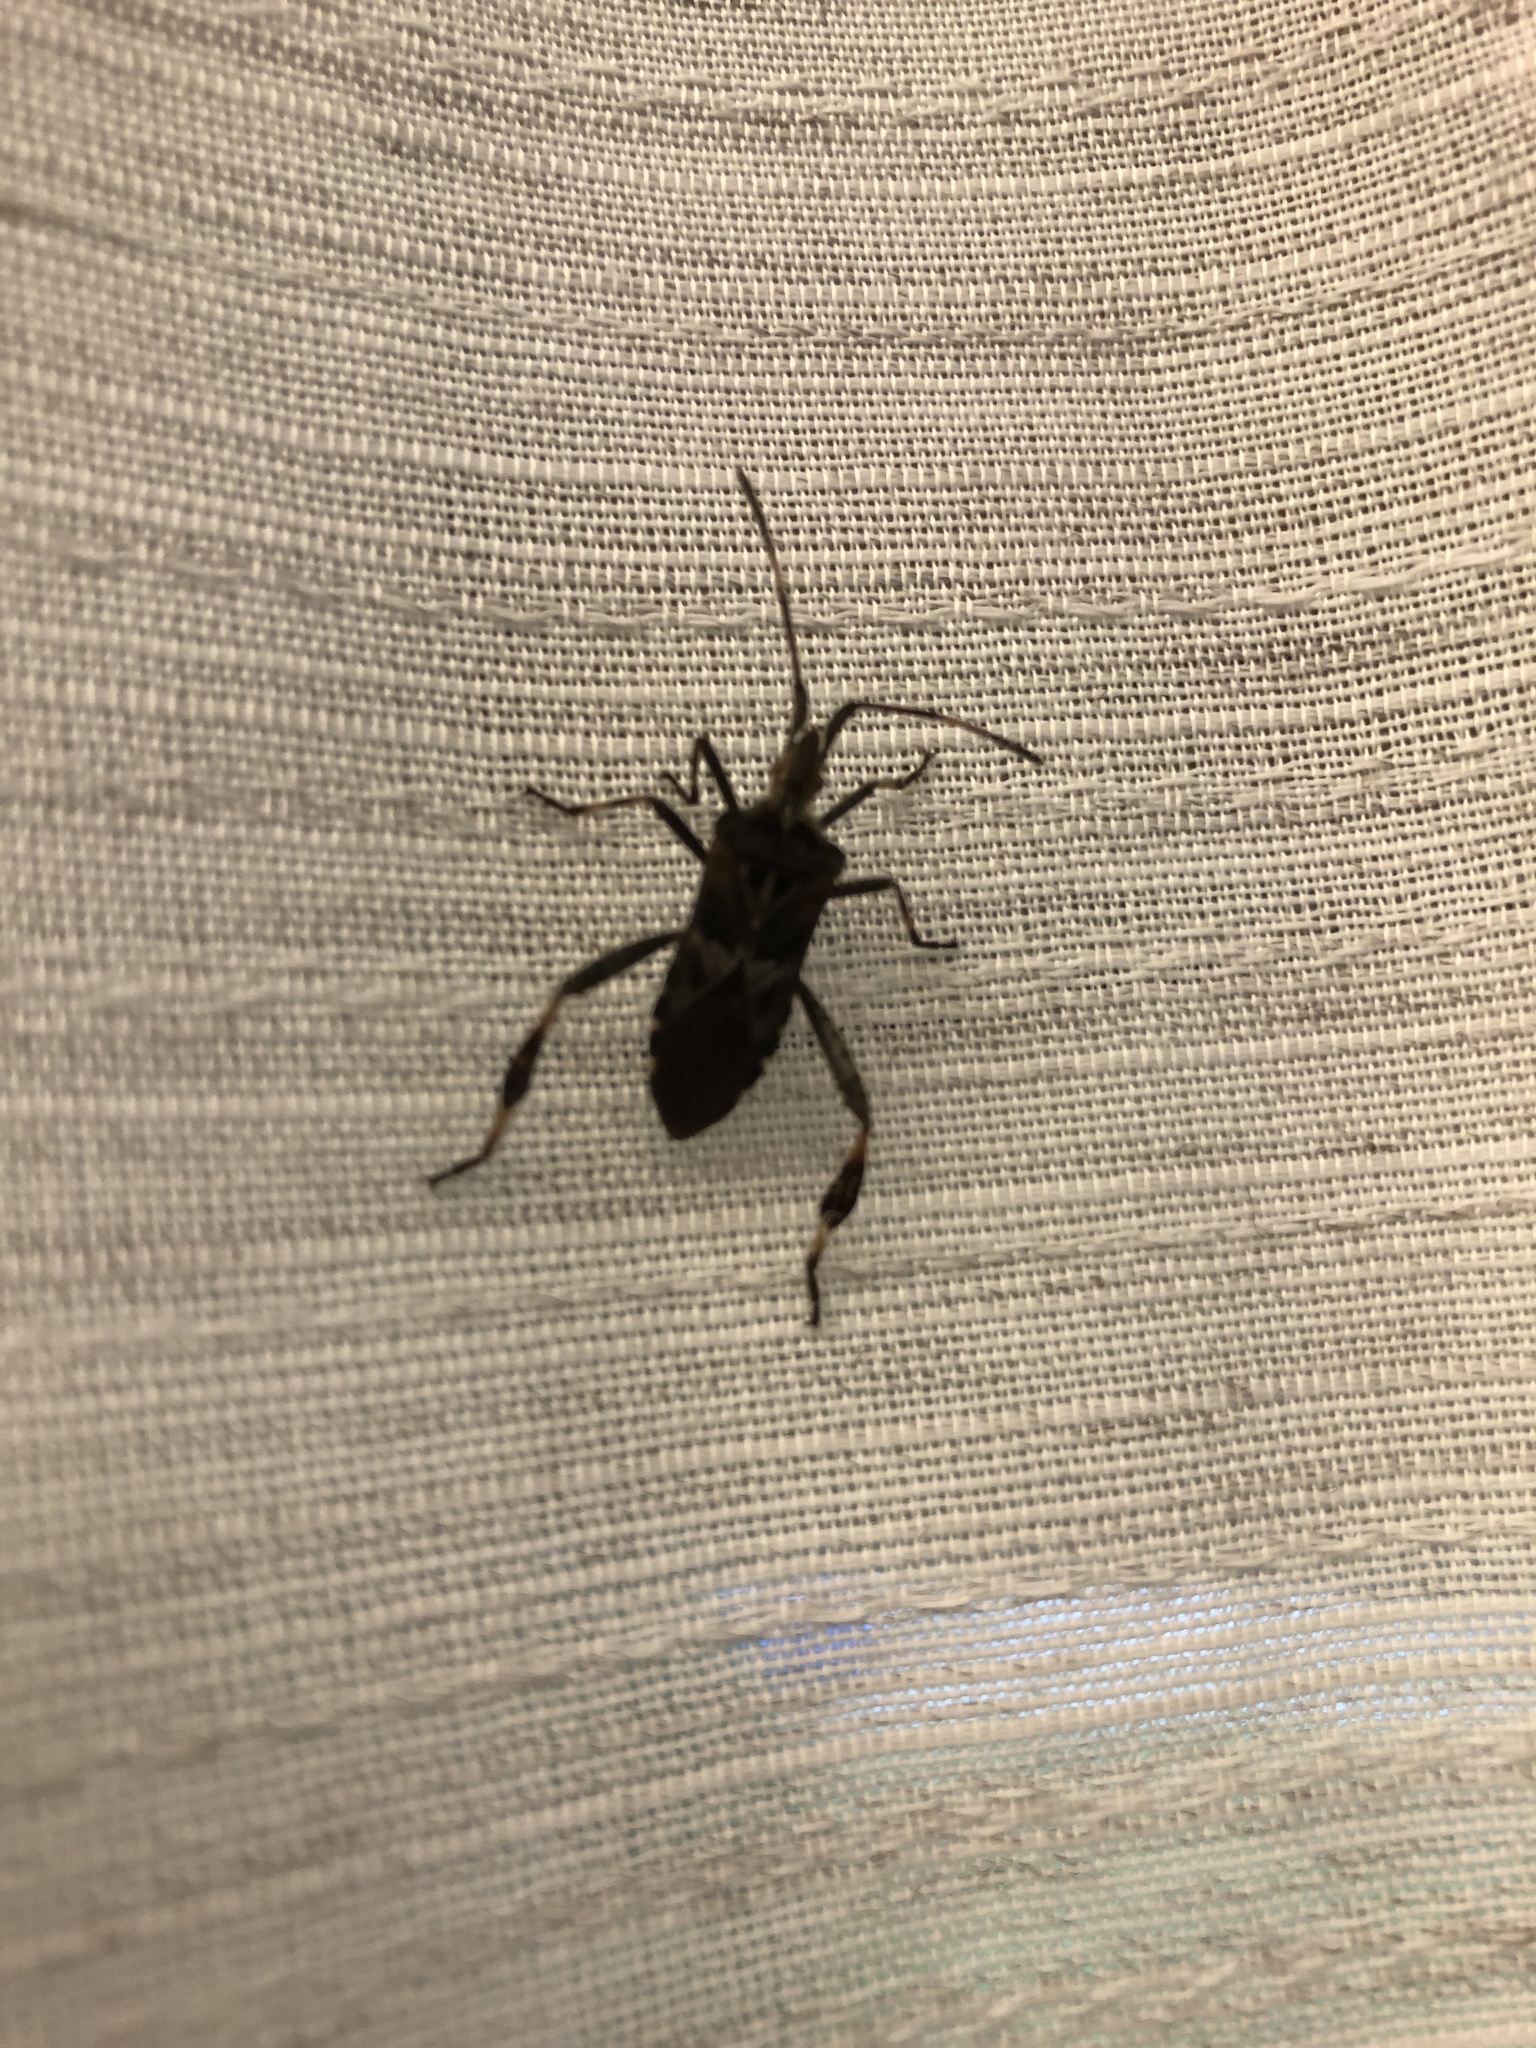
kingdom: Animalia
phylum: Arthropoda
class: Insecta
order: Hemiptera
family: Coreidae
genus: Leptoglossus
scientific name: Leptoglossus occidentalis
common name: Western conifer-seed bug
